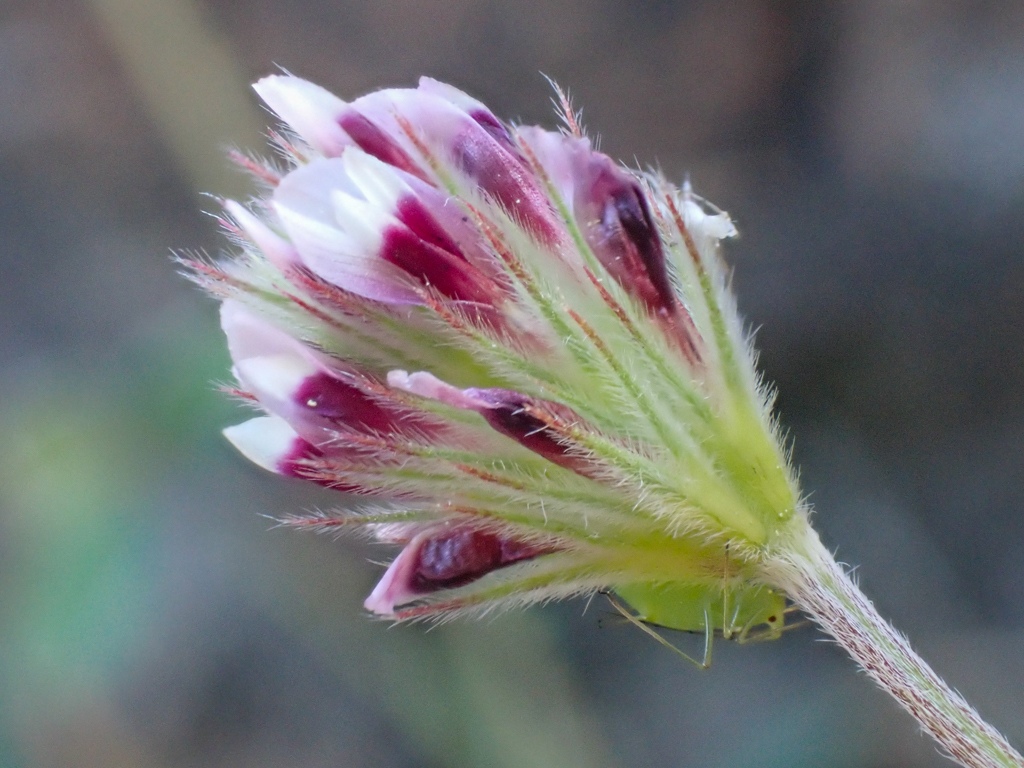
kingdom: Plantae
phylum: Tracheophyta
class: Magnoliopsida
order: Fabales
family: Fabaceae
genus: Trifolium
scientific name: Trifolium dichotomum
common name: Branched indian clover
